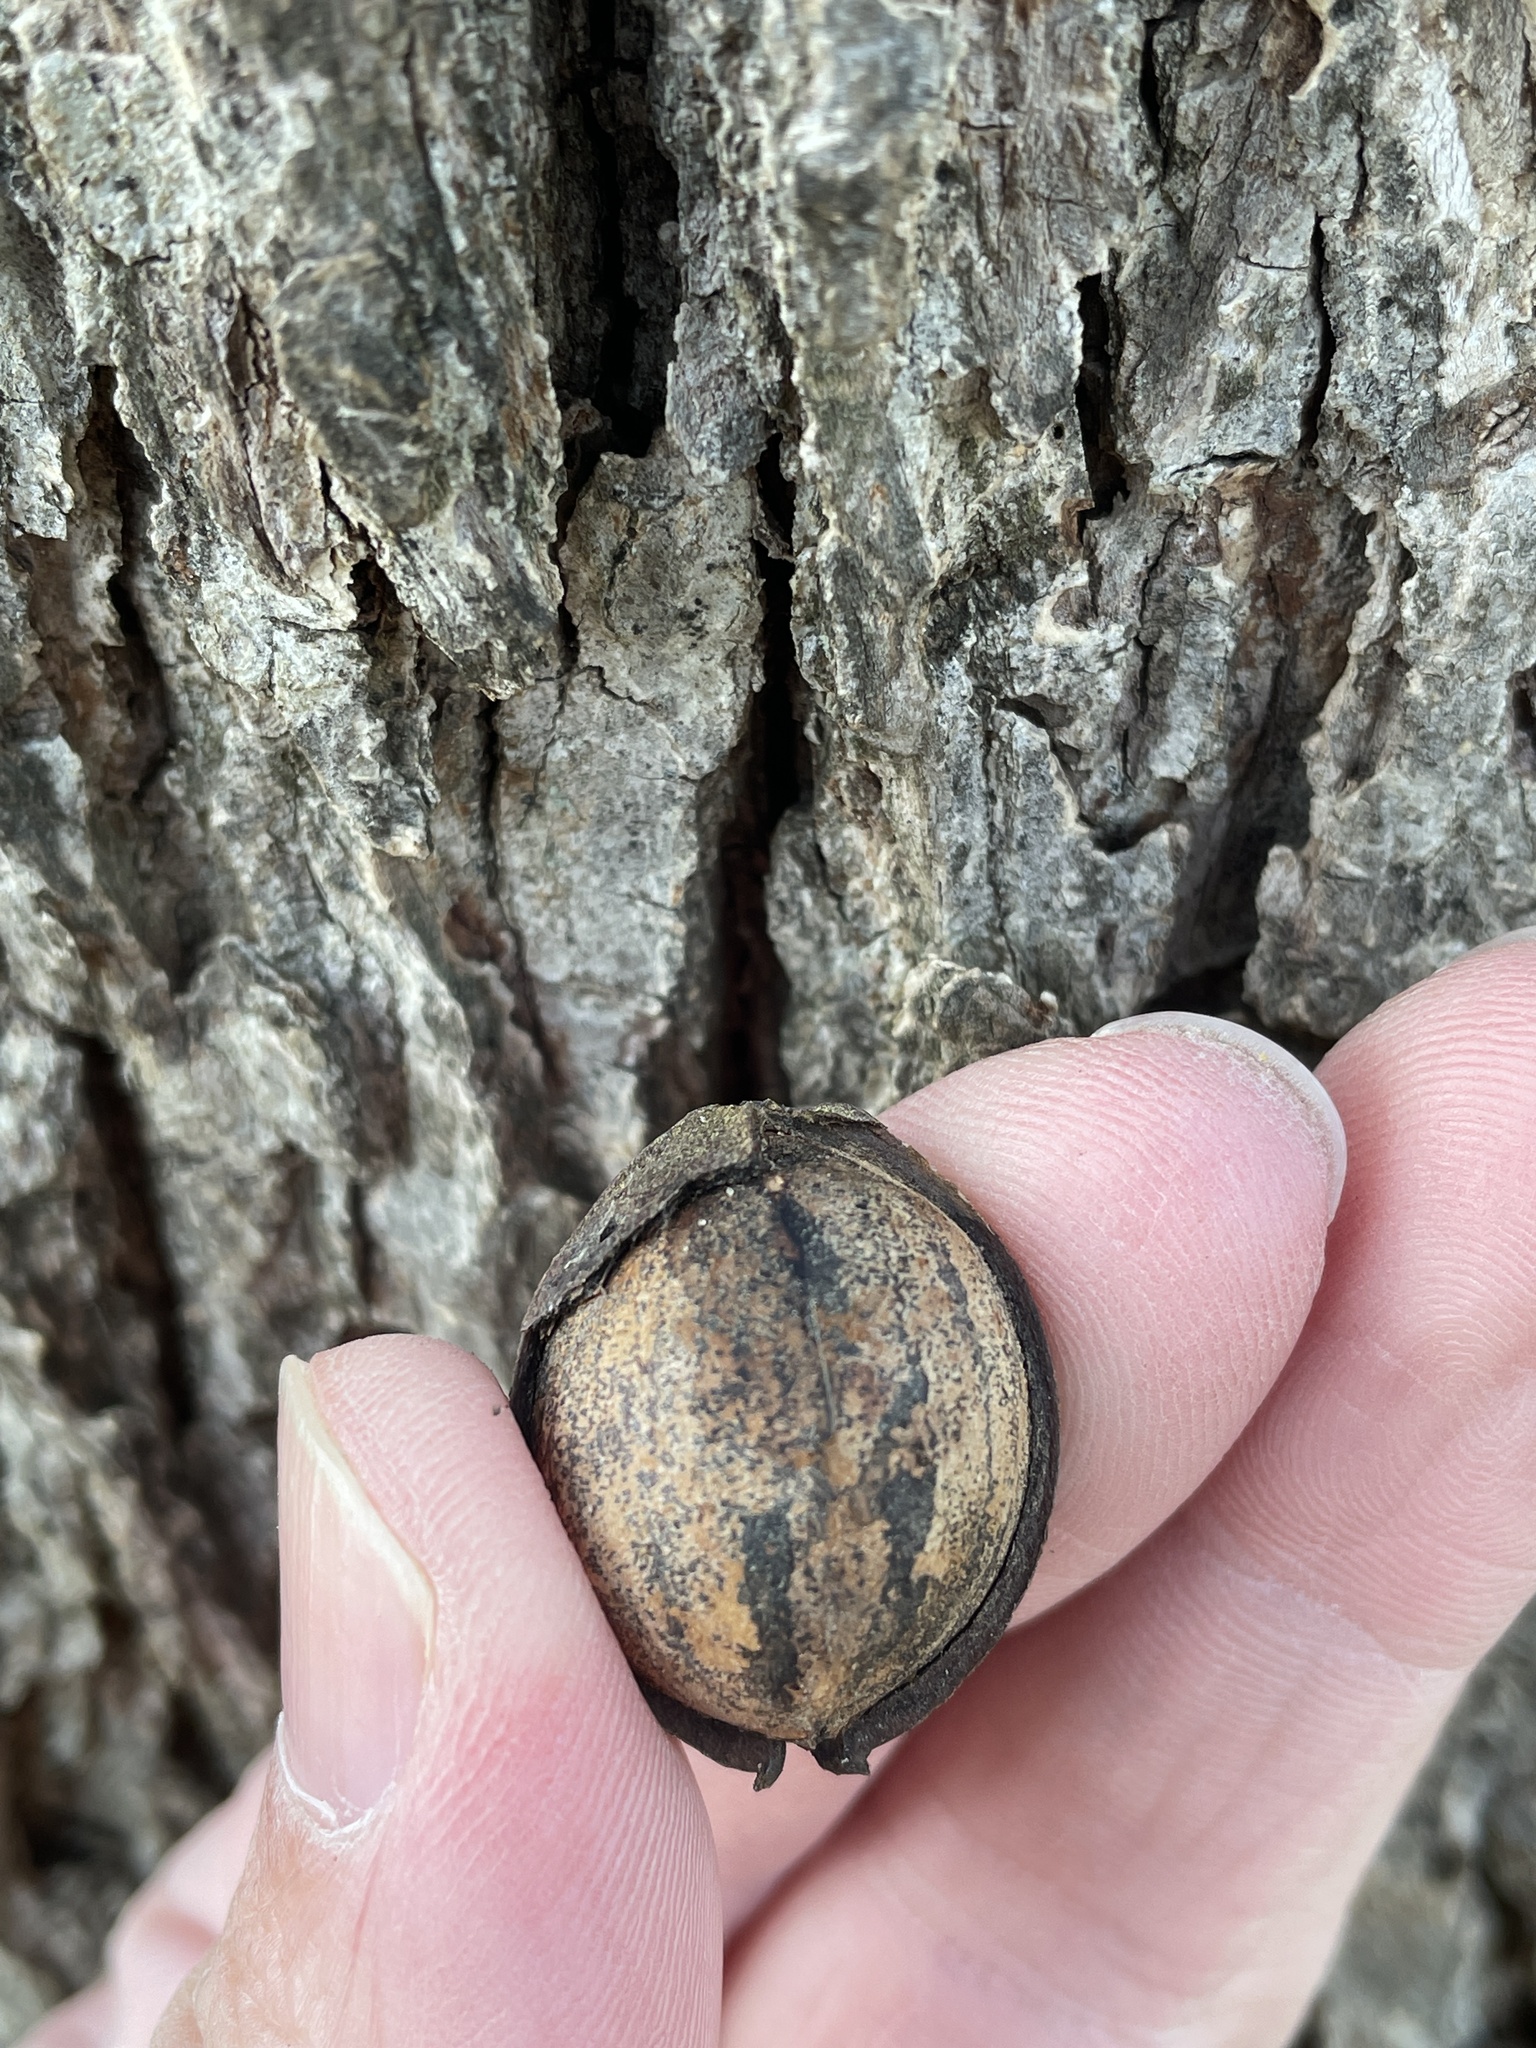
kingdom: Plantae
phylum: Tracheophyta
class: Magnoliopsida
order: Fagales
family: Juglandaceae
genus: Carya
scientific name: Carya illinoinensis
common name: Pecan
